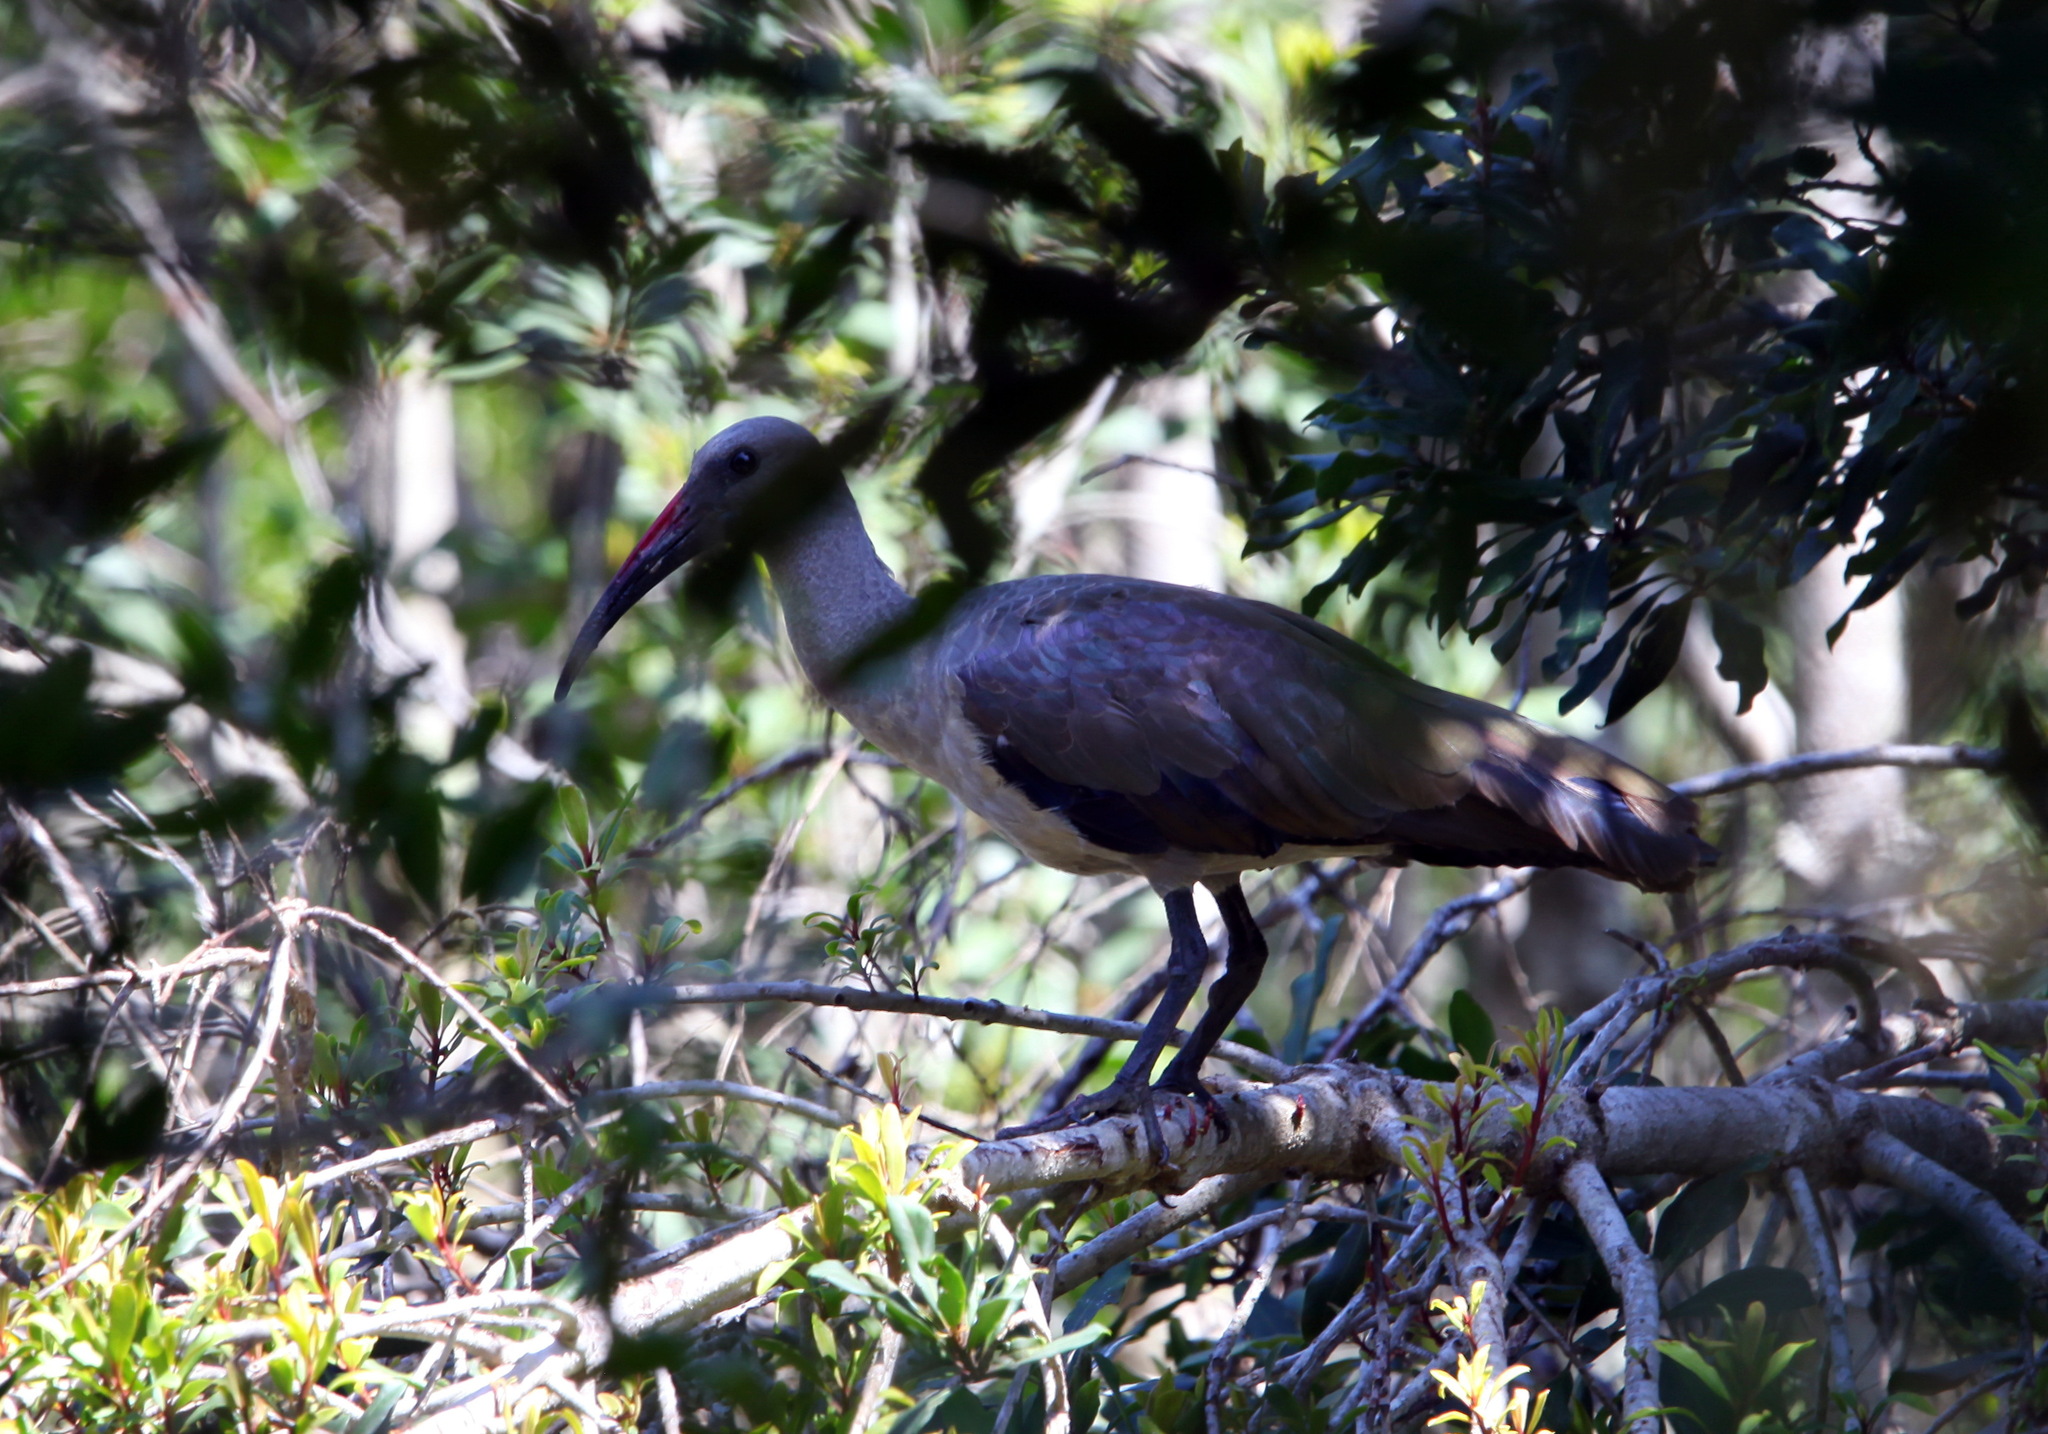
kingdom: Animalia
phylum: Chordata
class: Aves
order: Pelecaniformes
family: Threskiornithidae
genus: Bostrychia
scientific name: Bostrychia hagedash
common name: Hadada ibis
